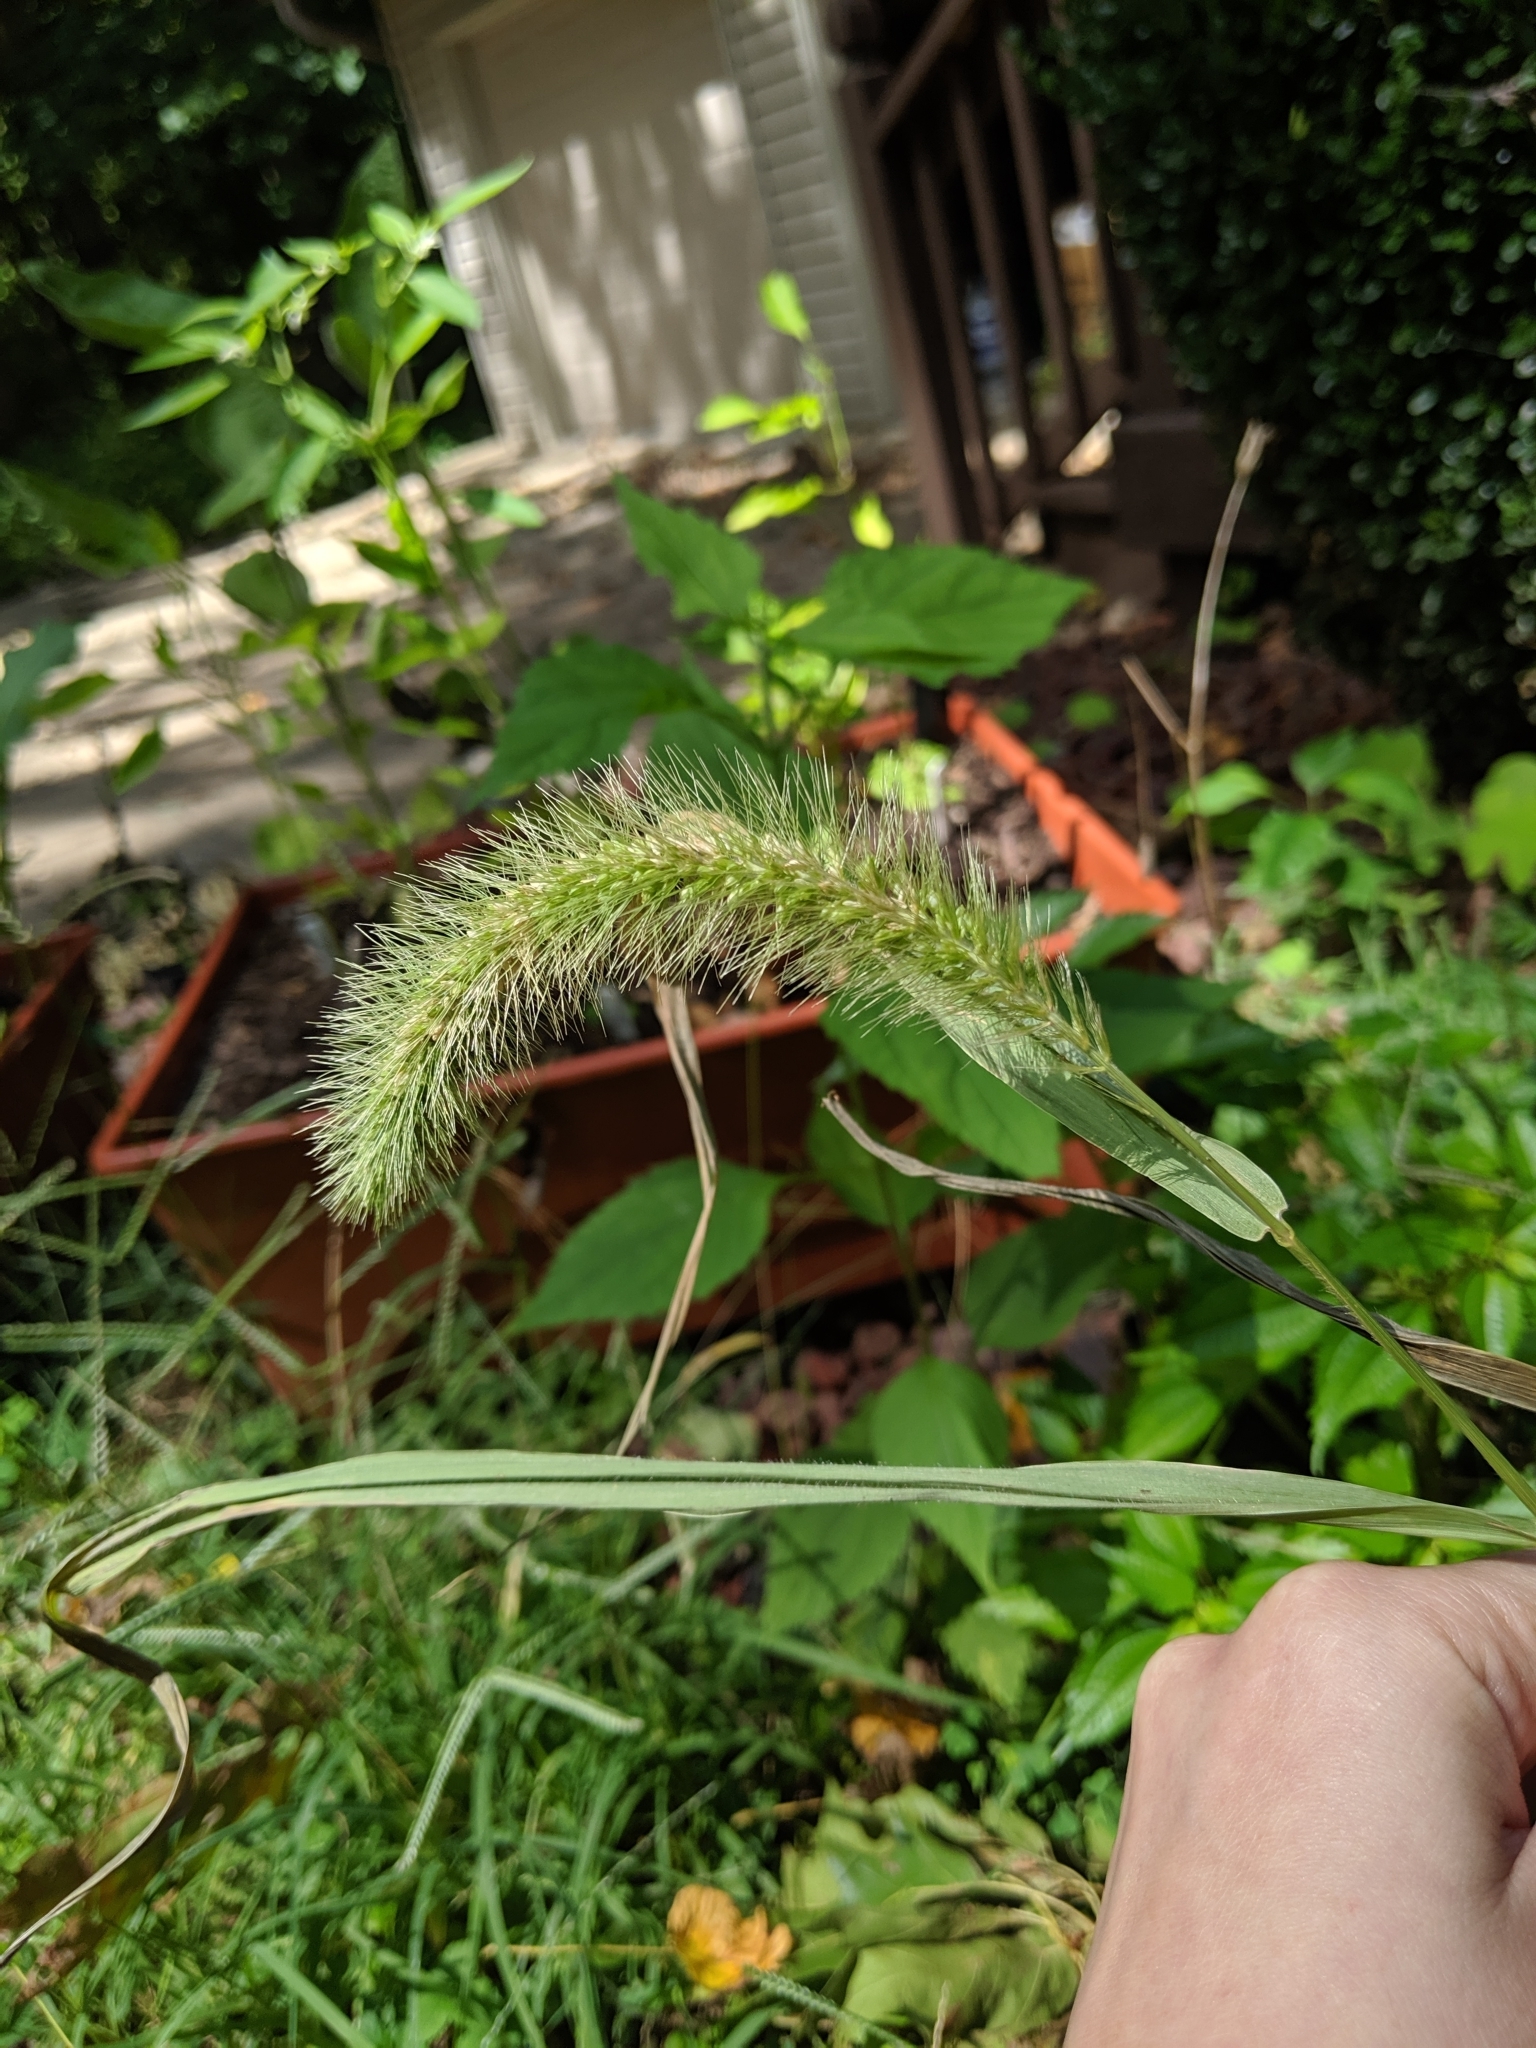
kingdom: Plantae
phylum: Tracheophyta
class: Liliopsida
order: Poales
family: Poaceae
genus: Setaria
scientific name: Setaria faberi
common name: Nodding bristle-grass
